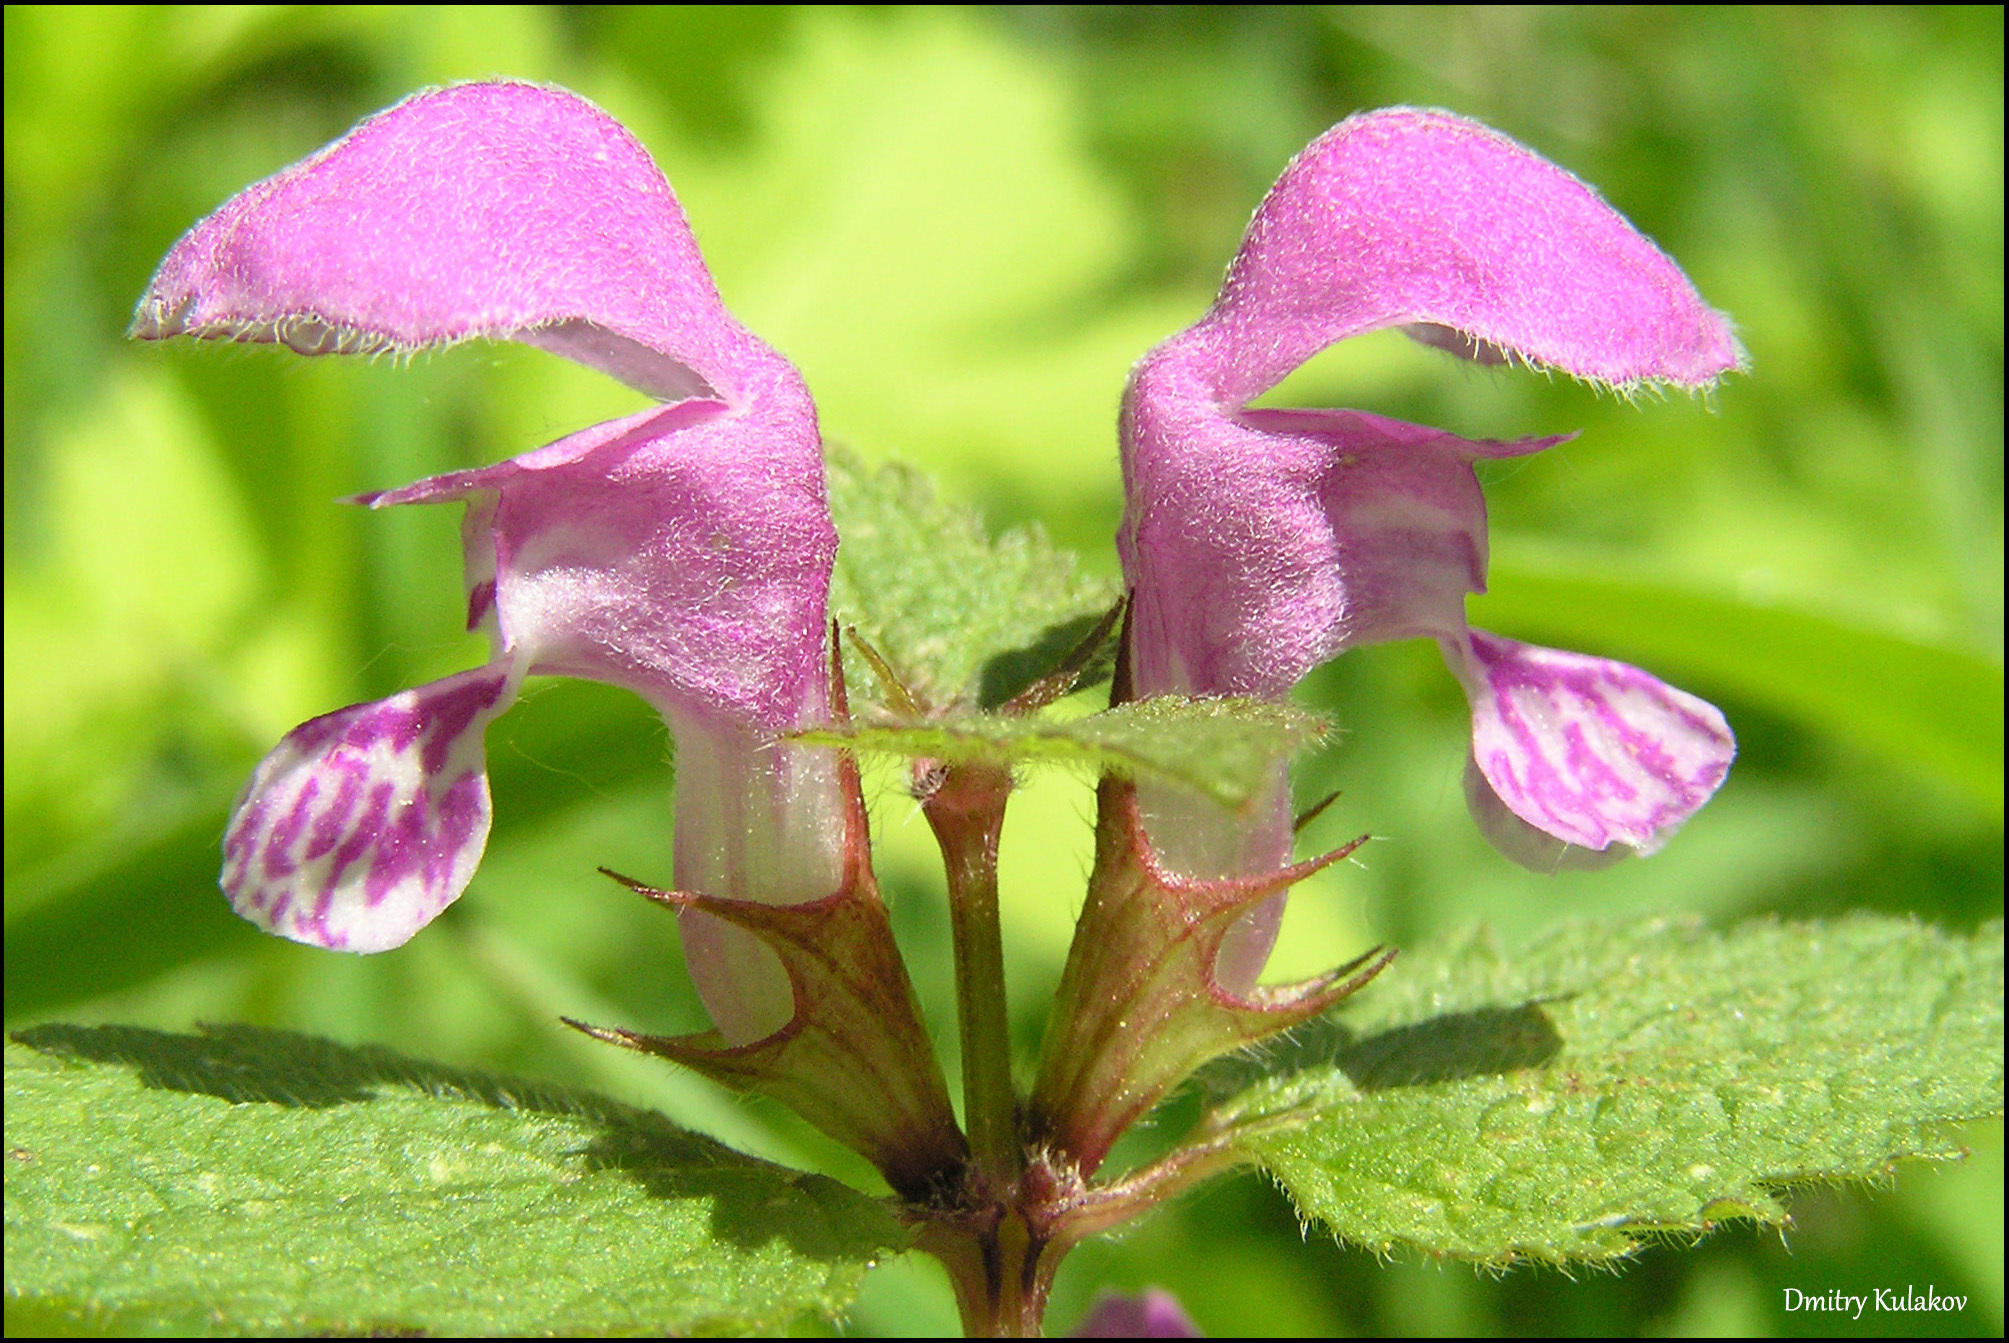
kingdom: Plantae
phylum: Tracheophyta
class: Magnoliopsida
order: Lamiales
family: Lamiaceae
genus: Lamium
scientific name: Lamium maculatum
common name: Spotted dead-nettle
